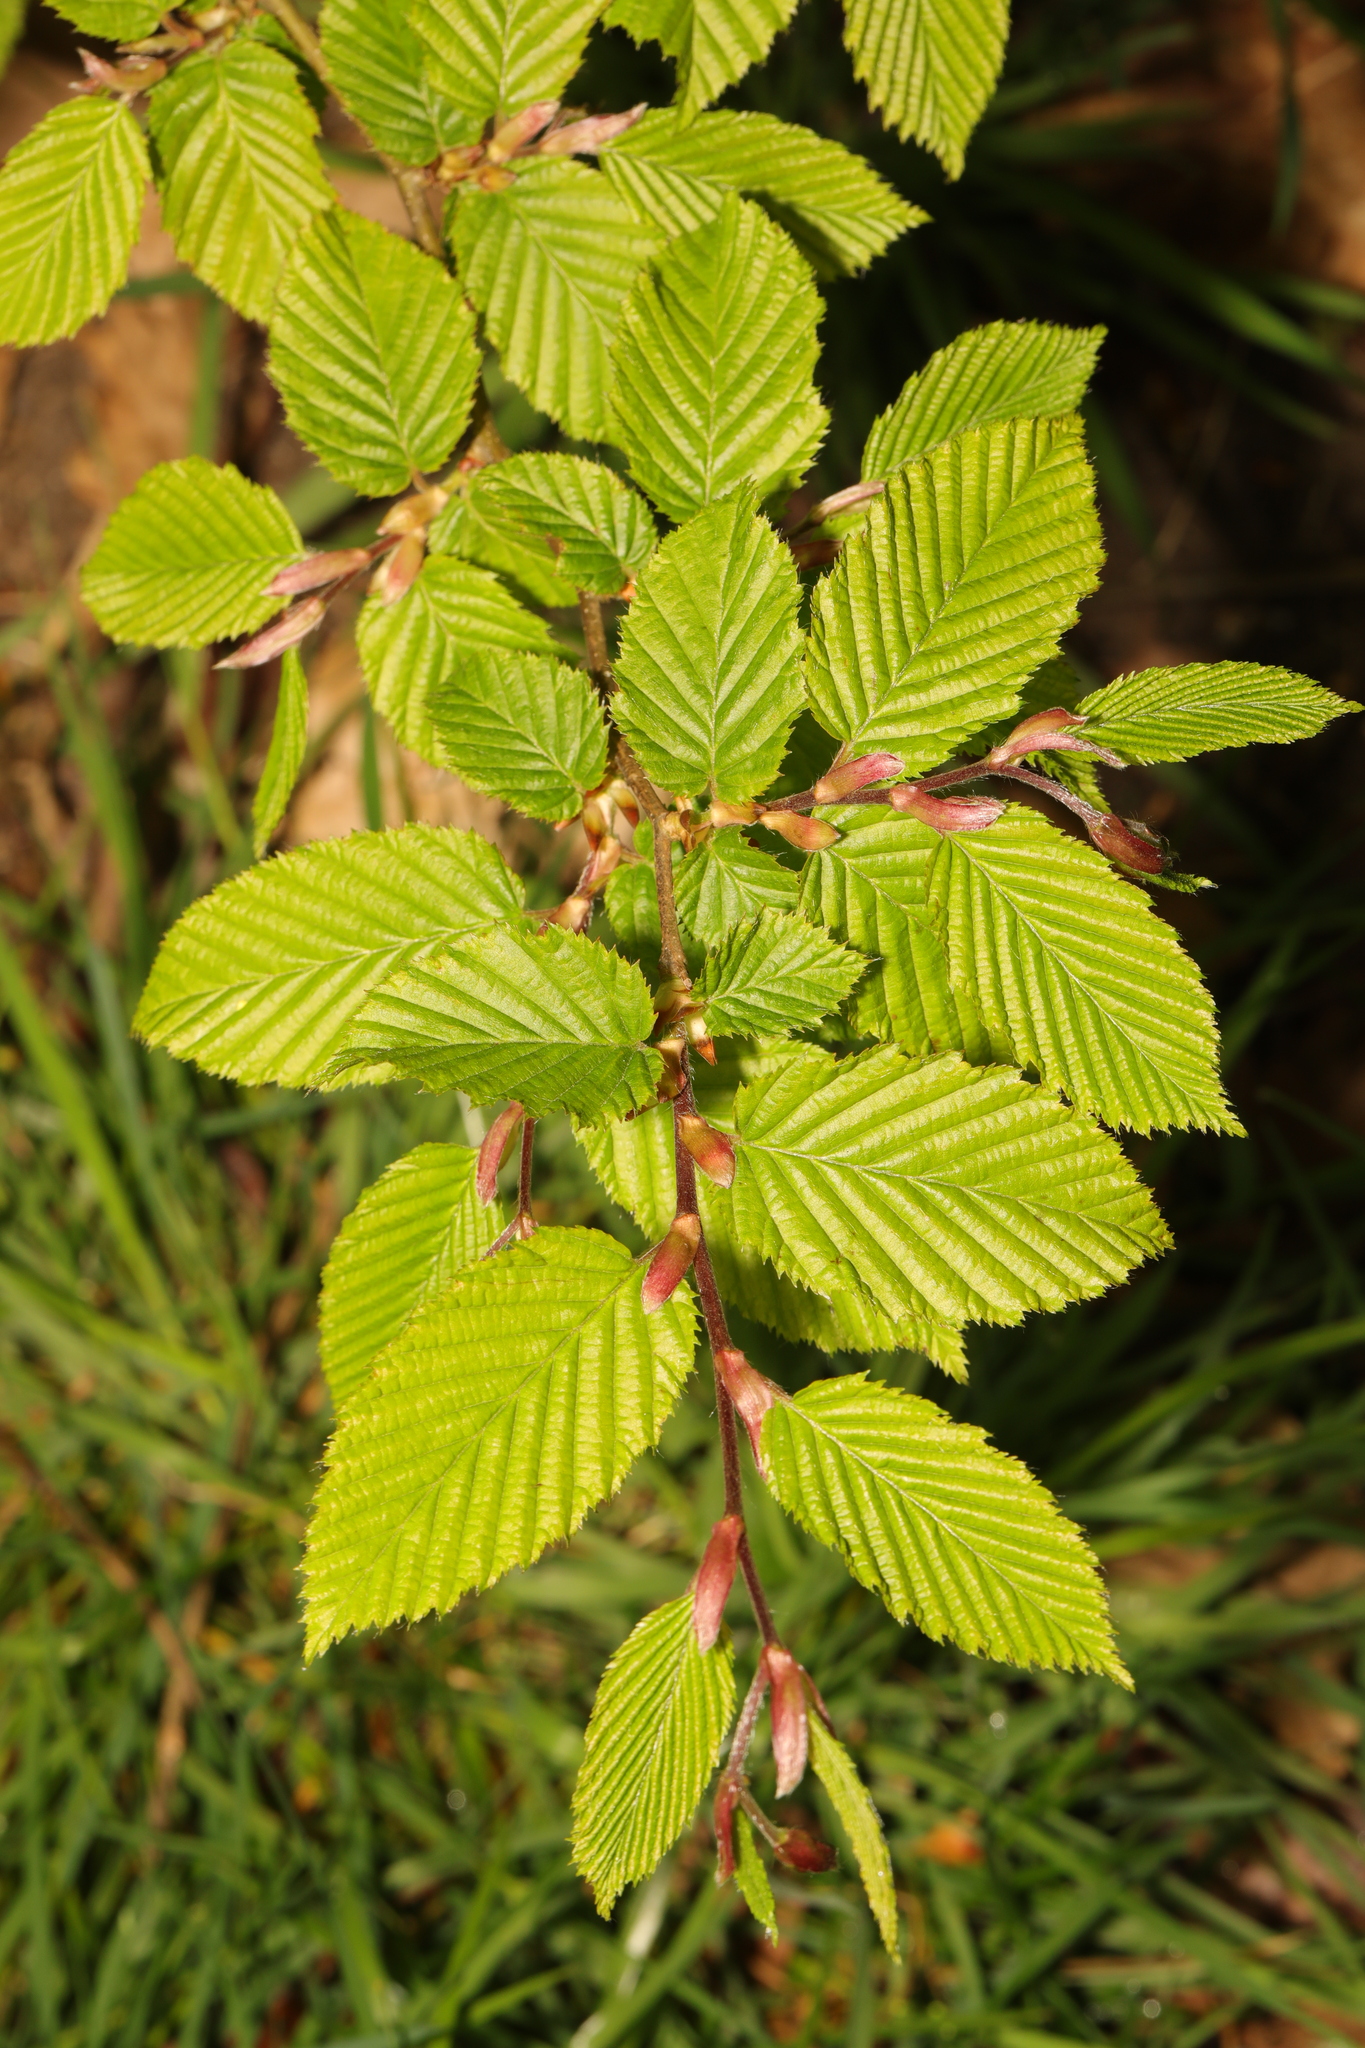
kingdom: Plantae
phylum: Tracheophyta
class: Magnoliopsida
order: Fagales
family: Betulaceae
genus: Carpinus
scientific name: Carpinus betulus
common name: Hornbeam
